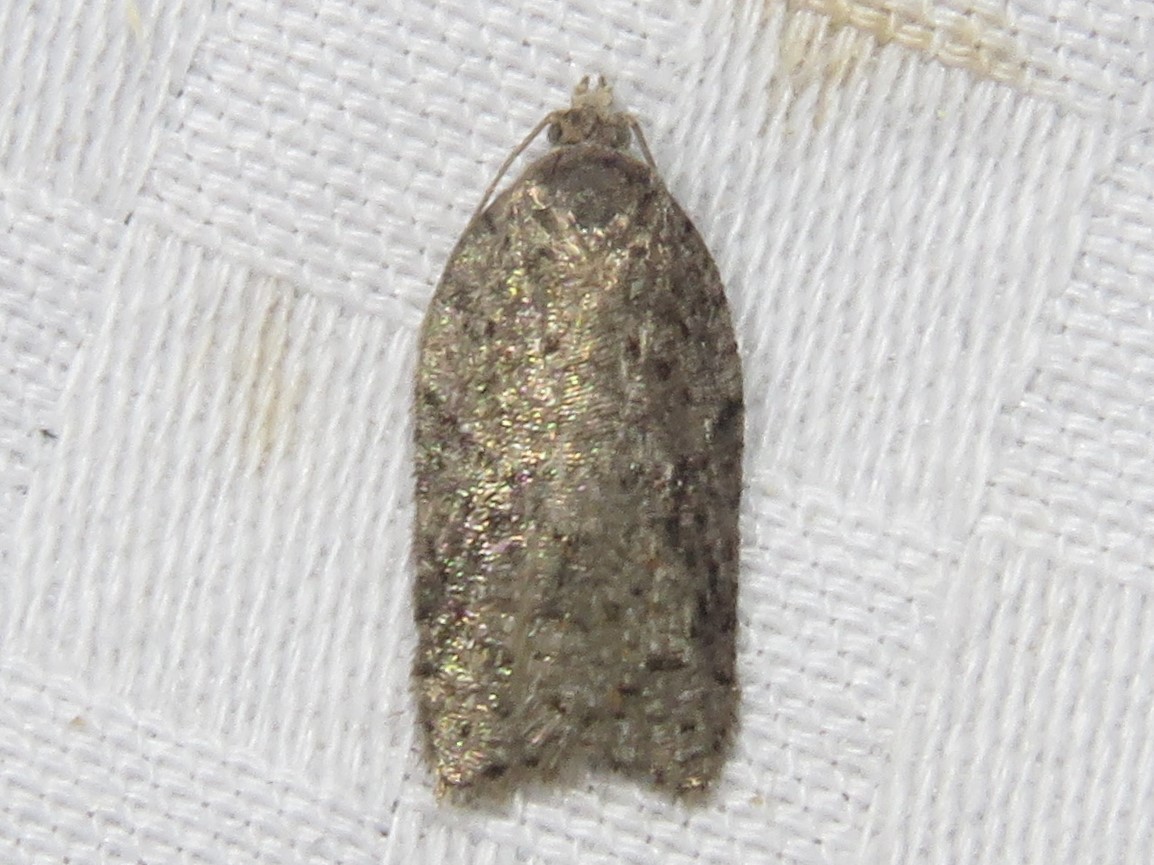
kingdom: Animalia
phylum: Arthropoda
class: Insecta
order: Lepidoptera
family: Tortricidae
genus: Acleris
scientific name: Acleris chalybeana
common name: Lesser maple leafroller
